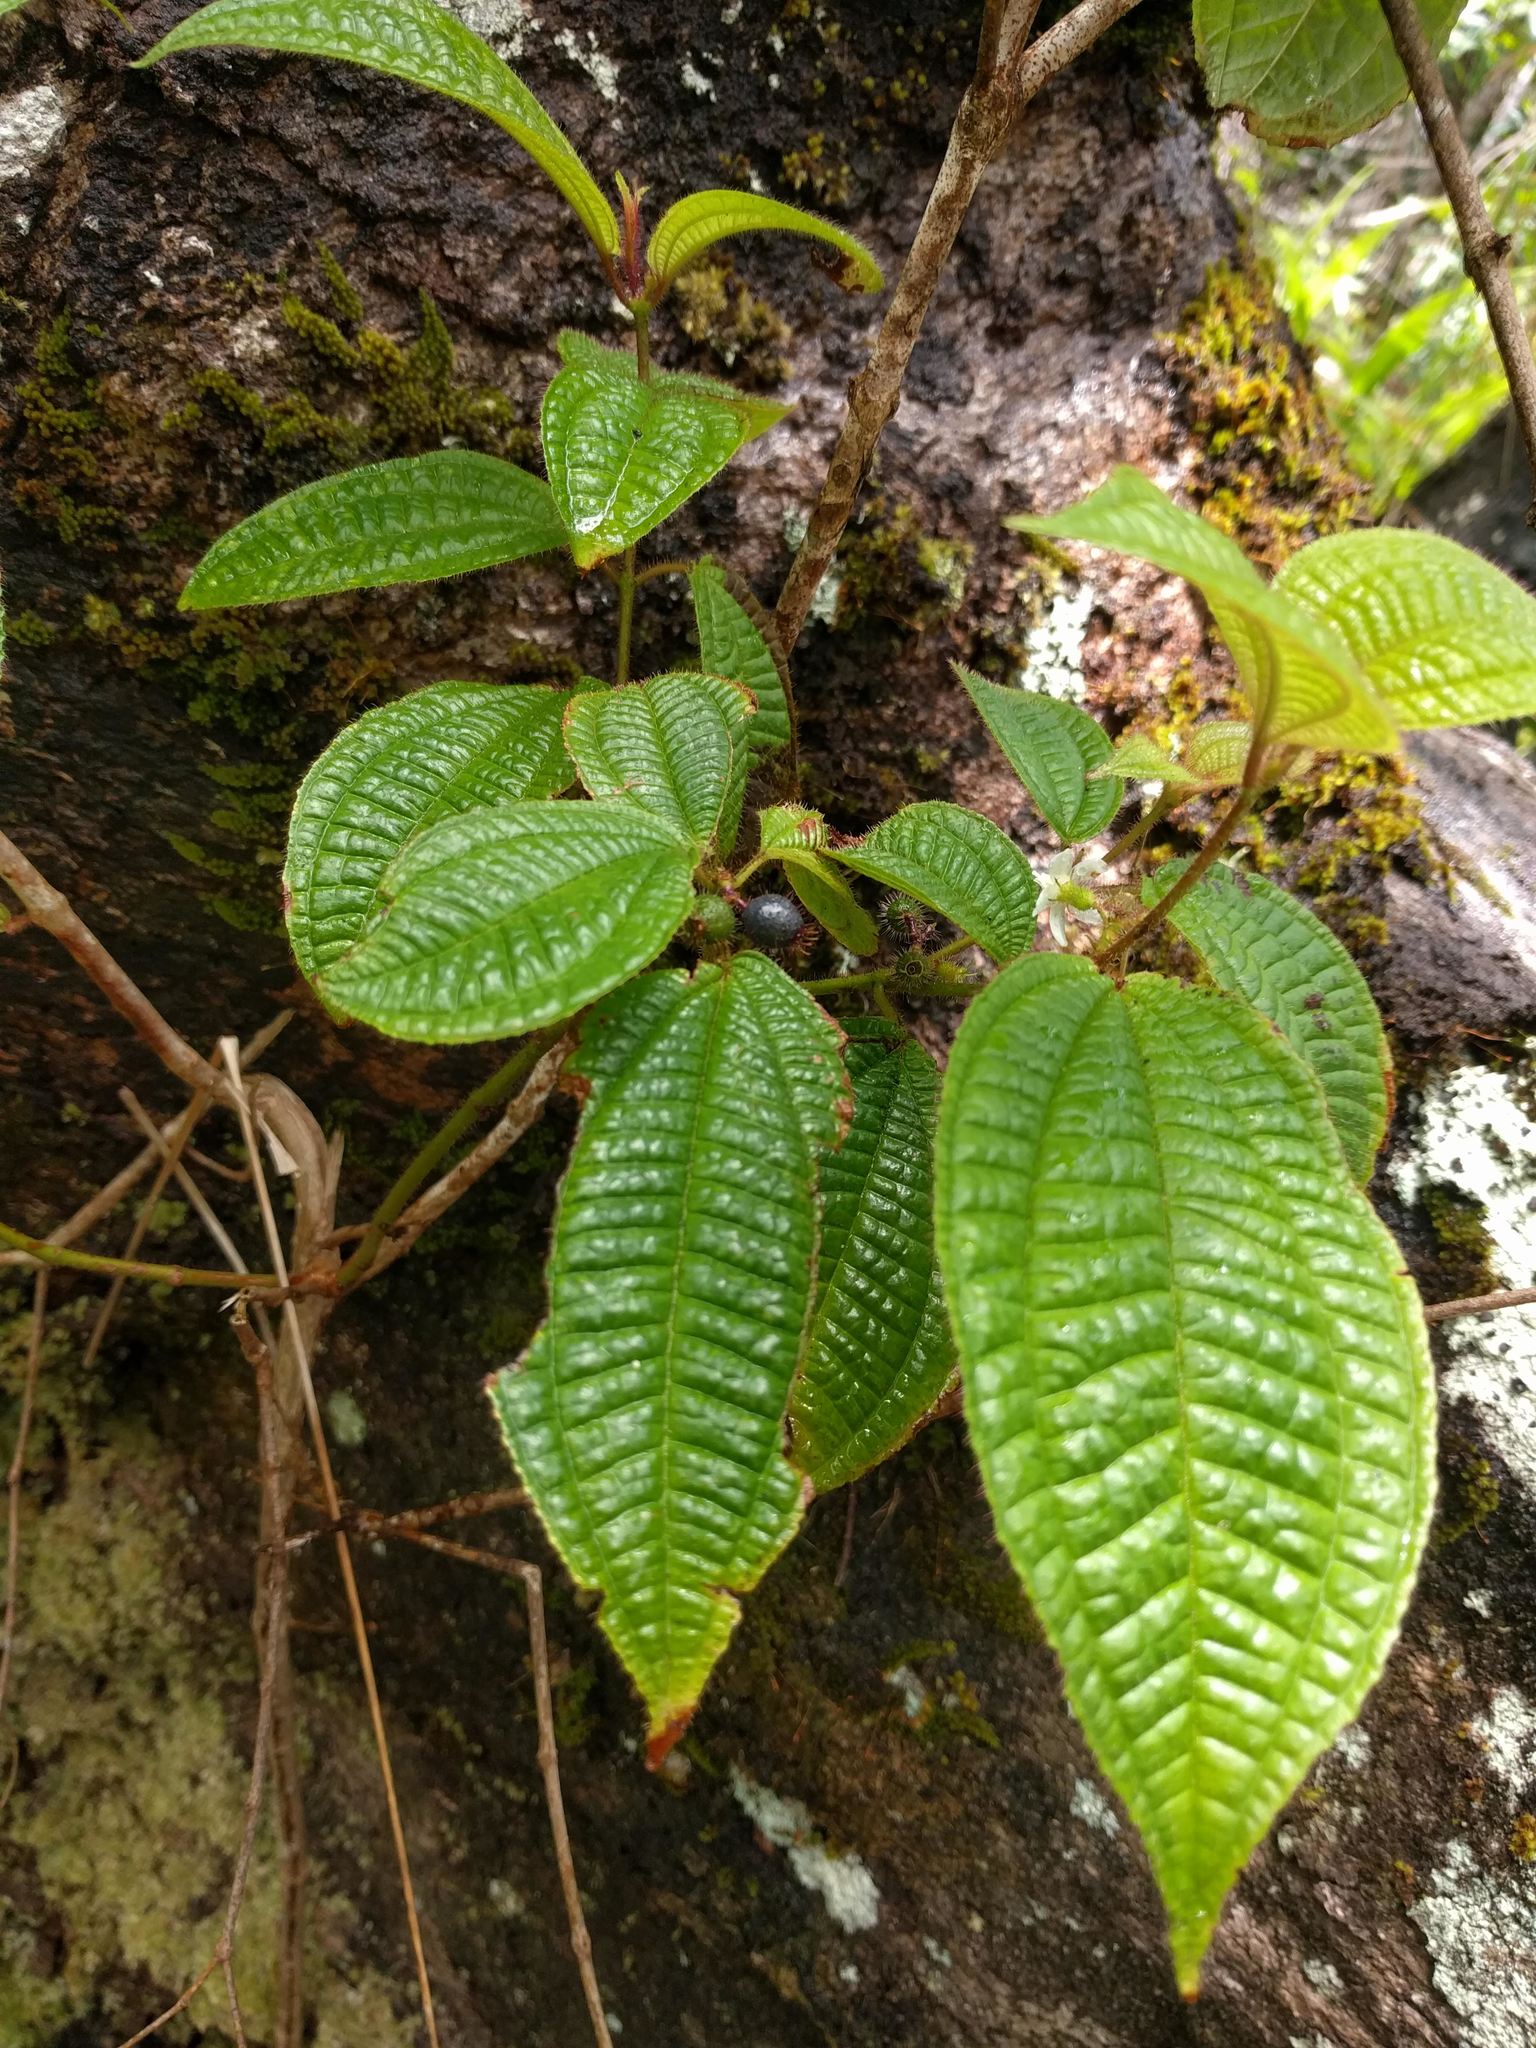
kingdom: Plantae
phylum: Tracheophyta
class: Magnoliopsida
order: Myrtales
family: Melastomataceae
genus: Miconia
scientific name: Miconia crenata
